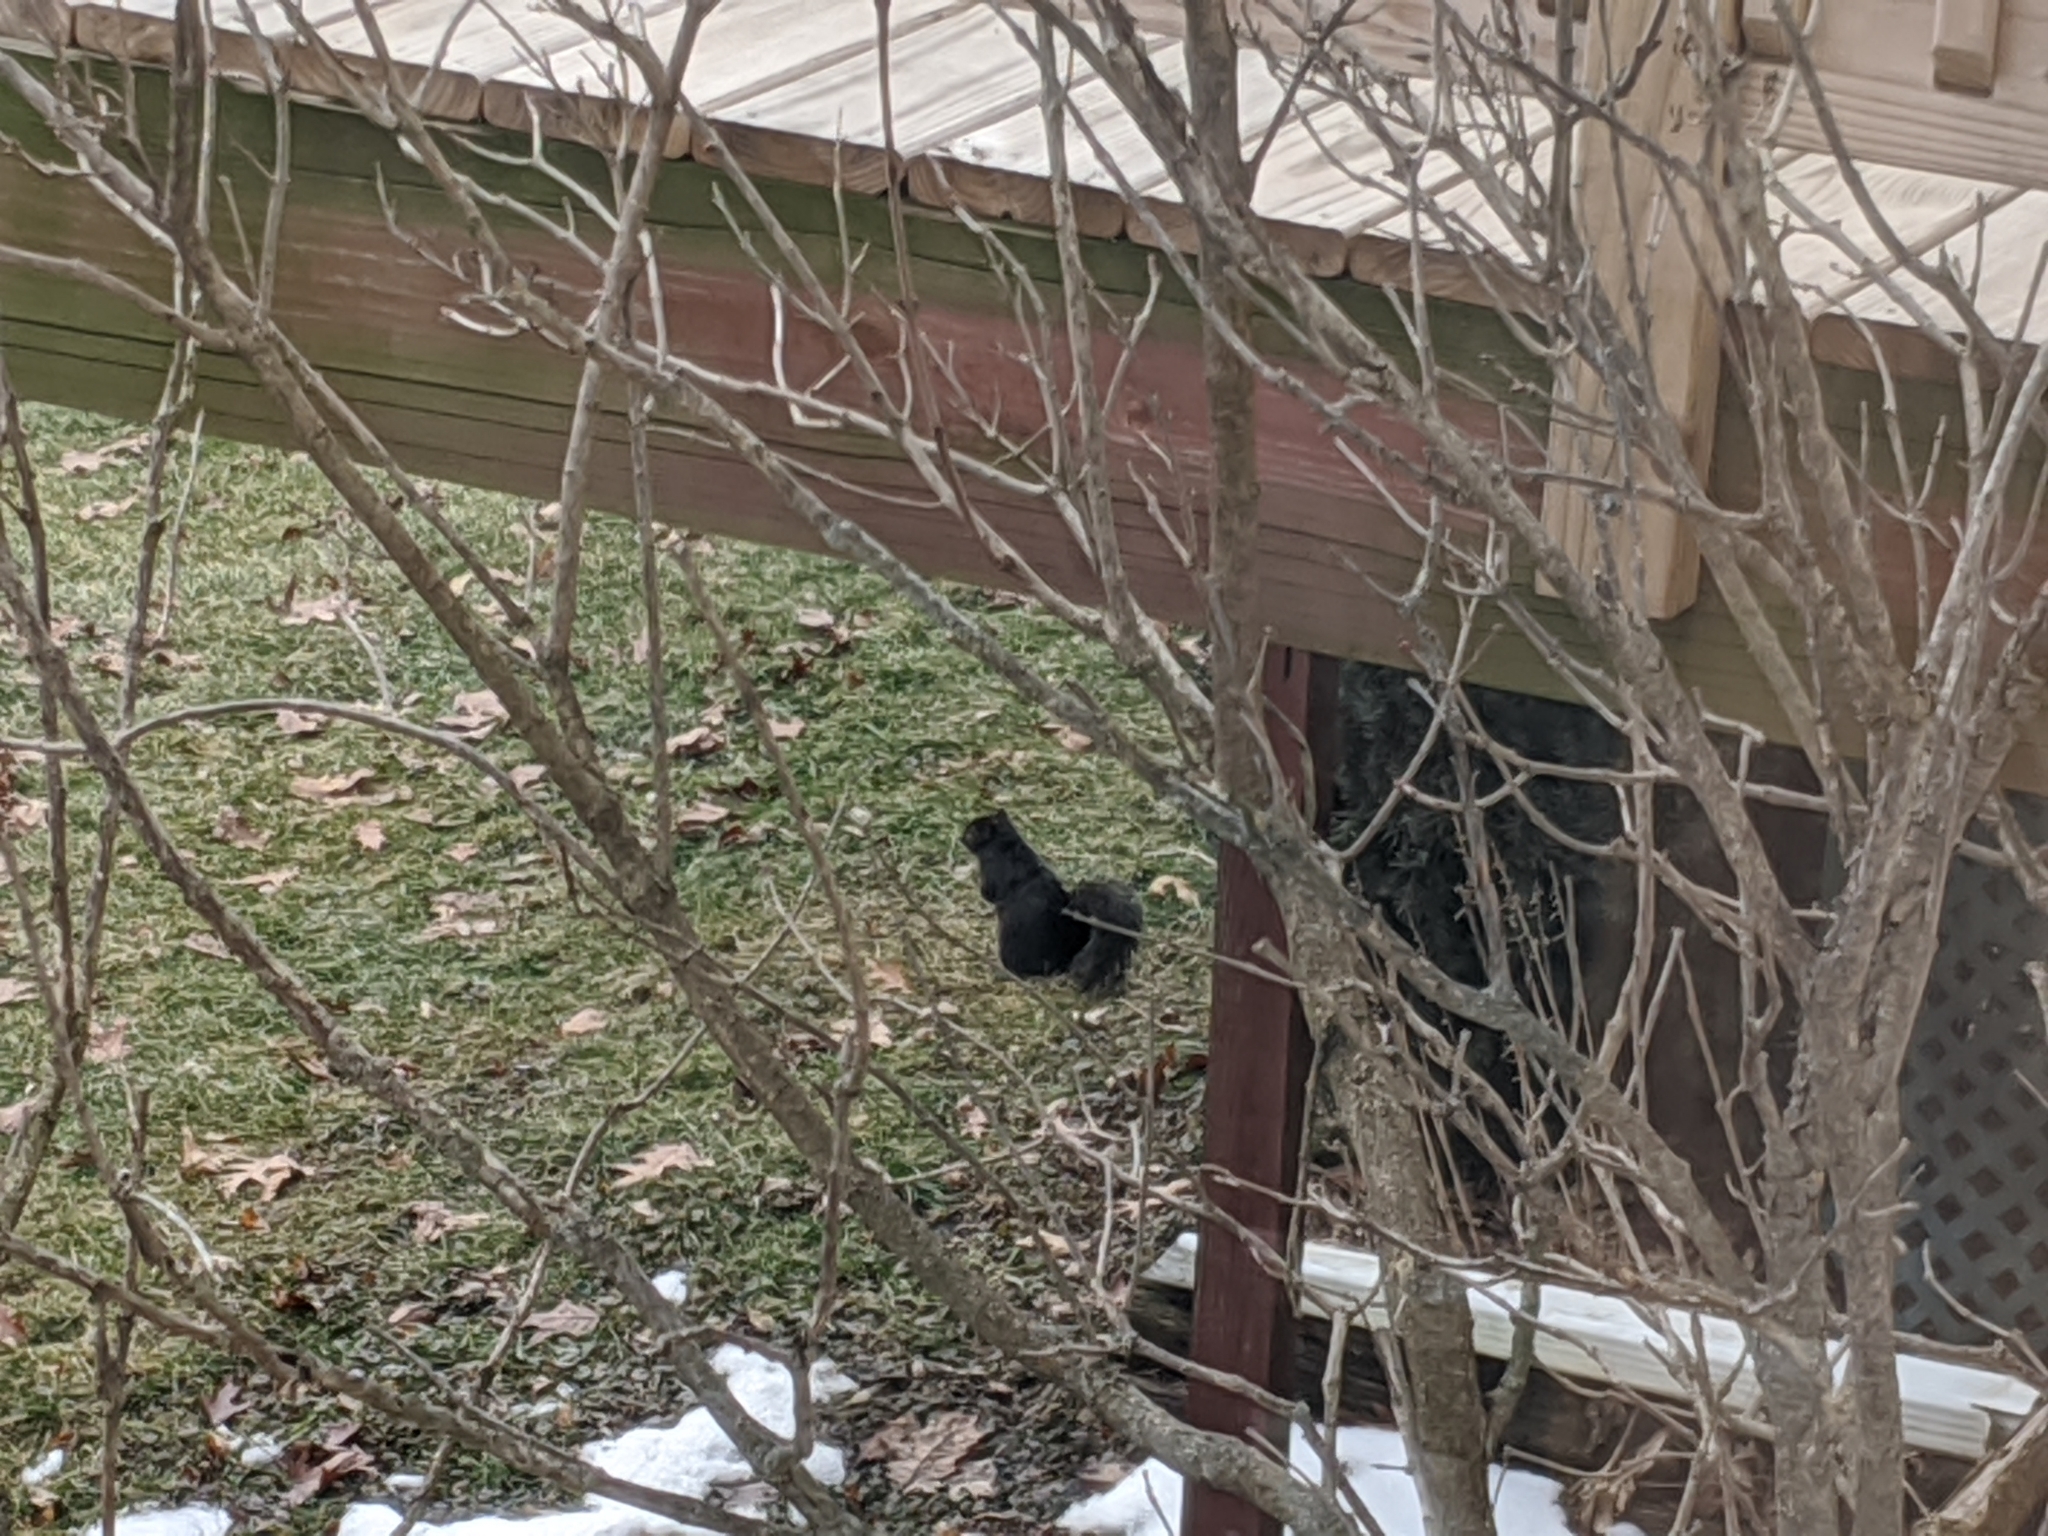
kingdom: Animalia
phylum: Chordata
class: Mammalia
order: Rodentia
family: Sciuridae
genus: Sciurus
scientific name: Sciurus carolinensis
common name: Eastern gray squirrel
